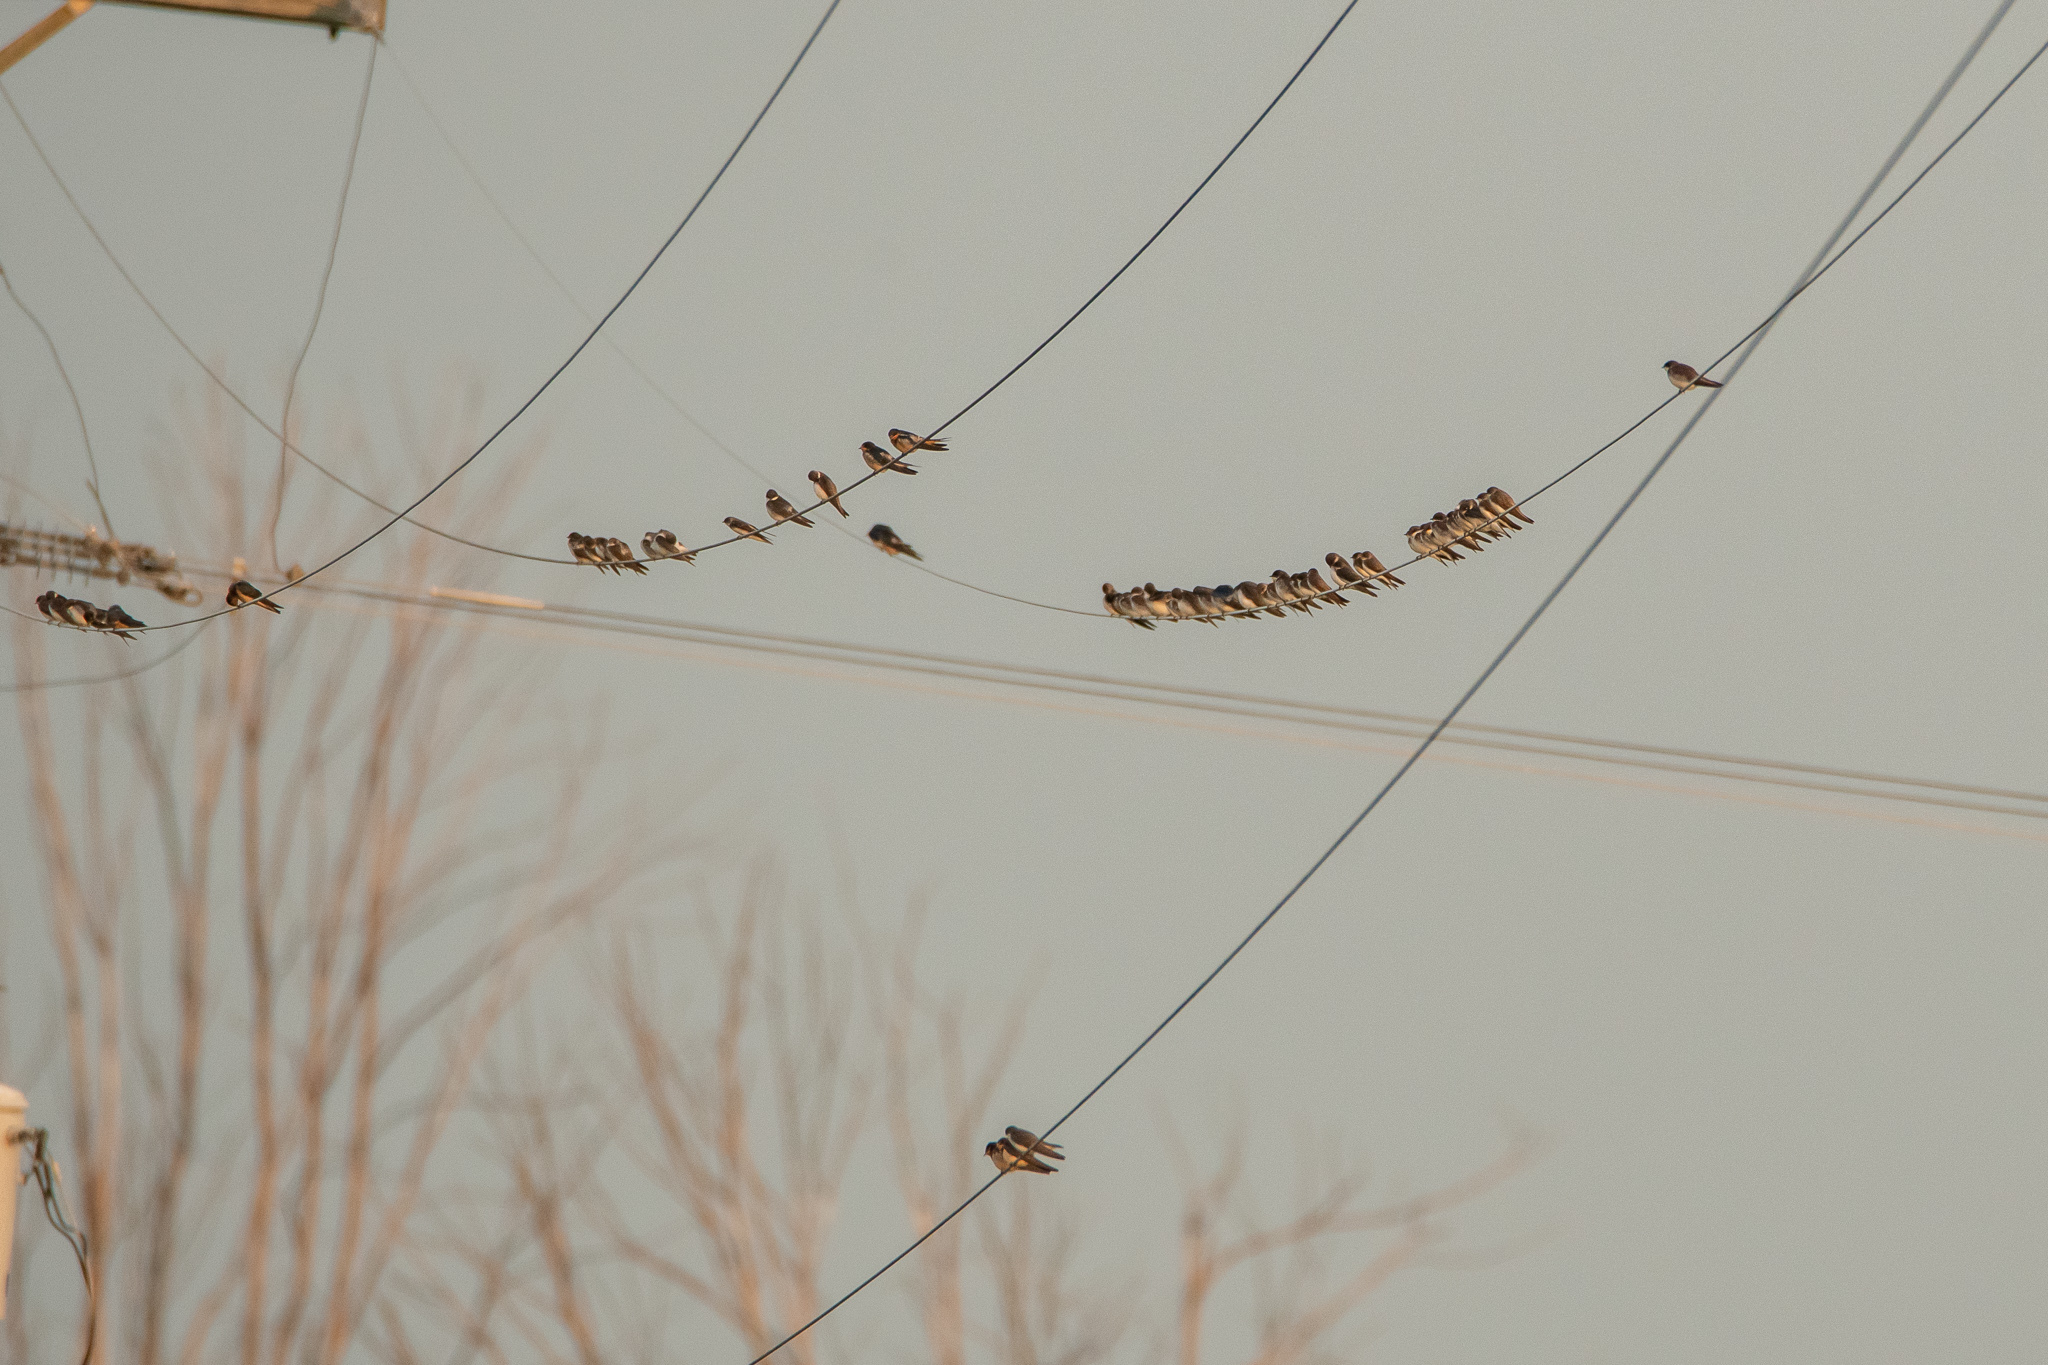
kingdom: Animalia
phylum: Chordata
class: Aves
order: Passeriformes
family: Hirundinidae
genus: Hirundo
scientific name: Hirundo rustica
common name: Barn swallow
